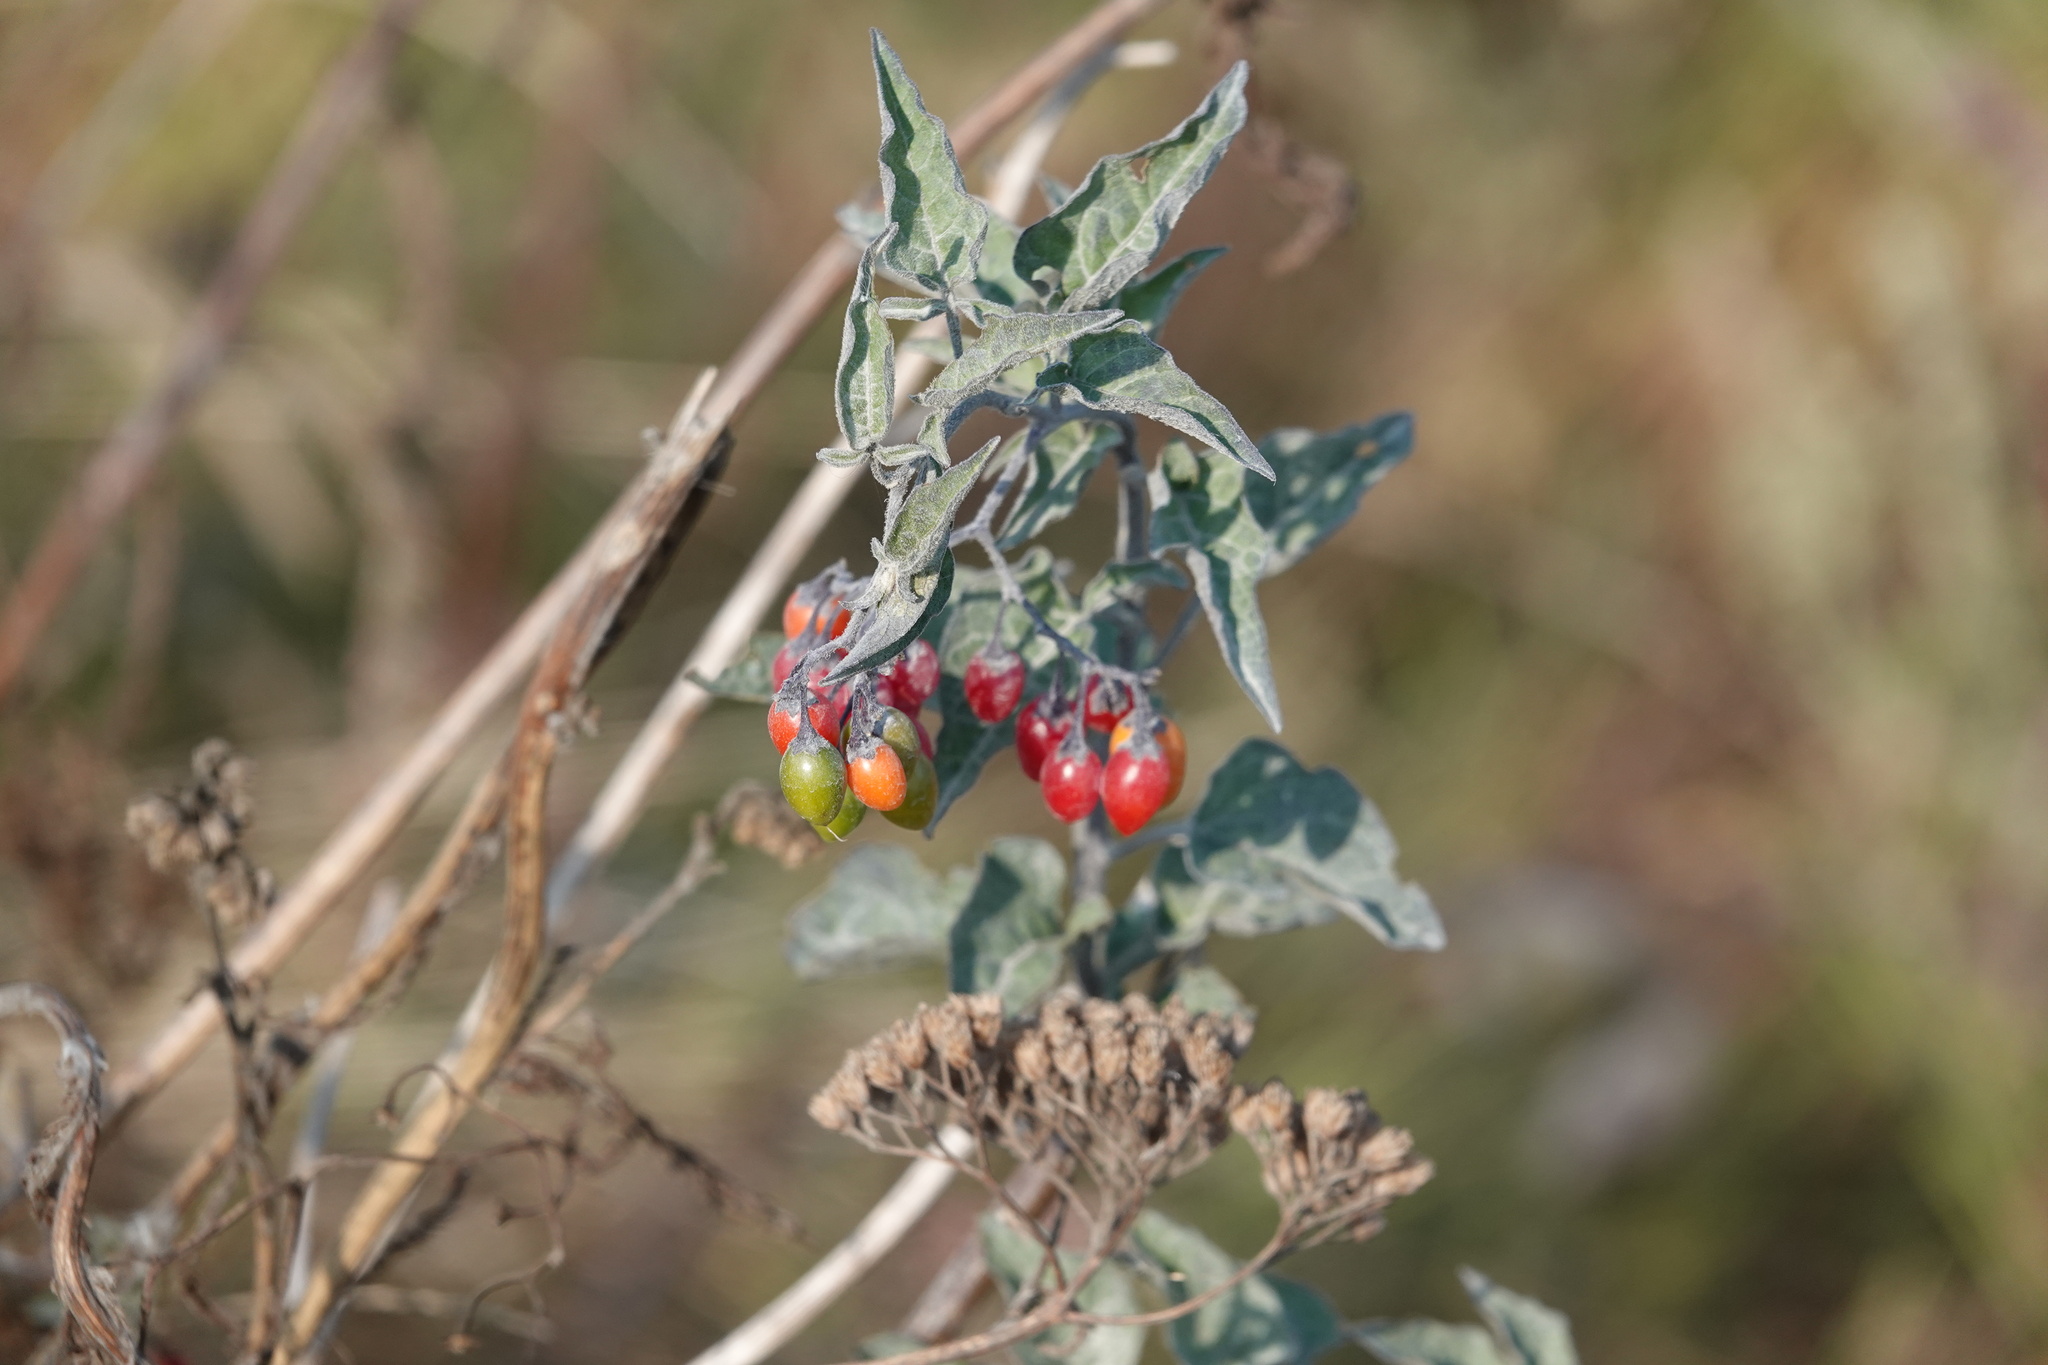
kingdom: Plantae
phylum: Tracheophyta
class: Magnoliopsida
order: Solanales
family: Solanaceae
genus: Solanum
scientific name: Solanum dulcamara
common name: Climbing nightshade
